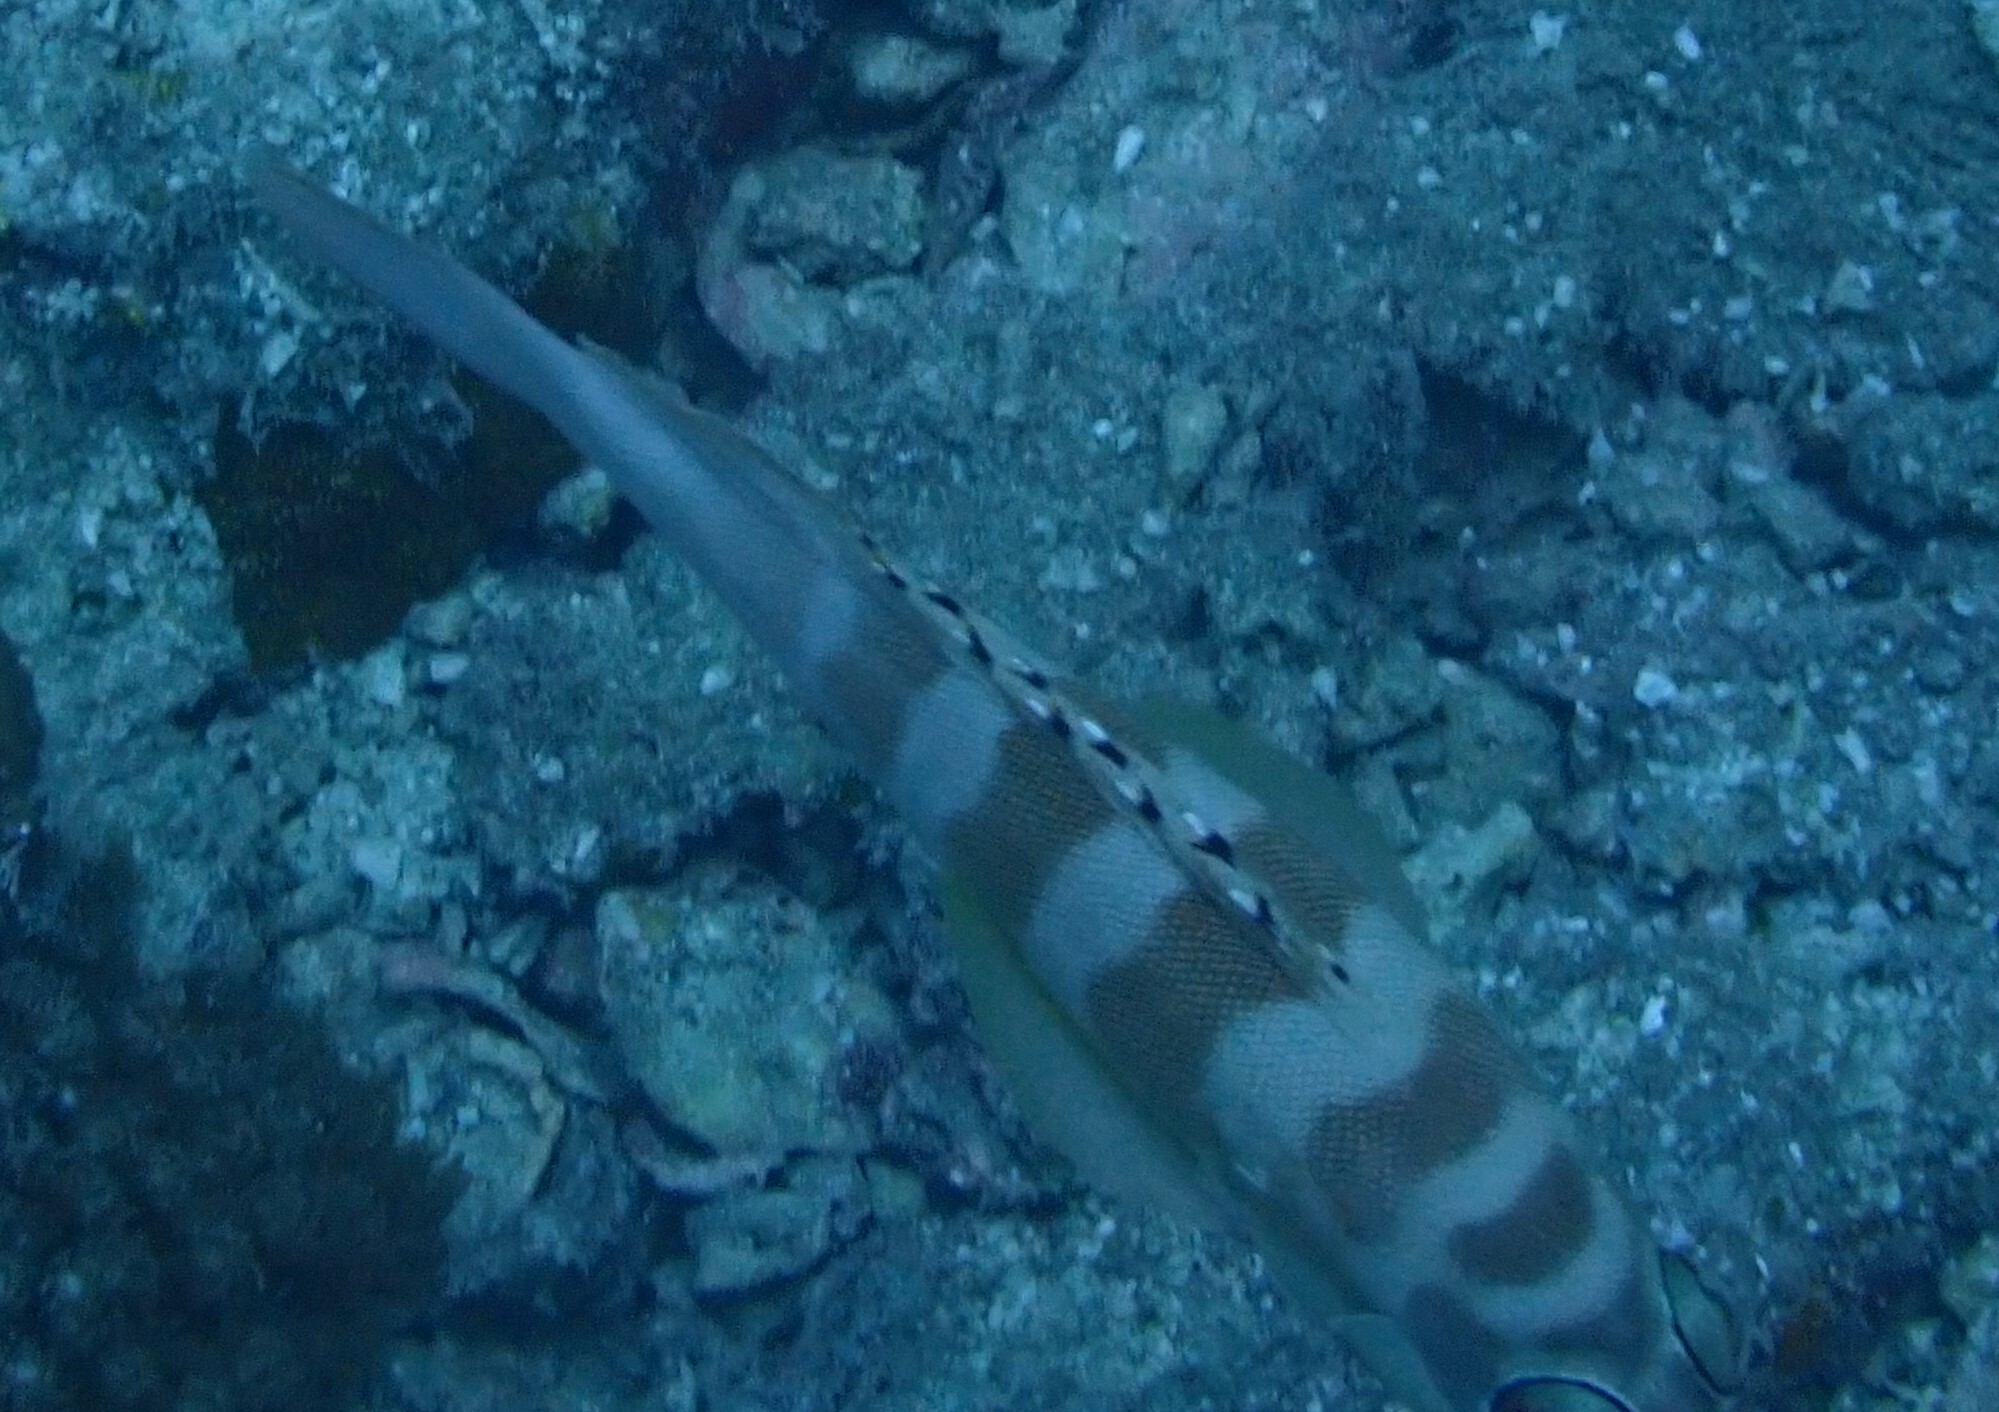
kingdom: Animalia
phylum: Chordata
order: Perciformes
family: Serranidae
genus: Epinephelus
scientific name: Epinephelus fasciatus
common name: Blacktip grouper
